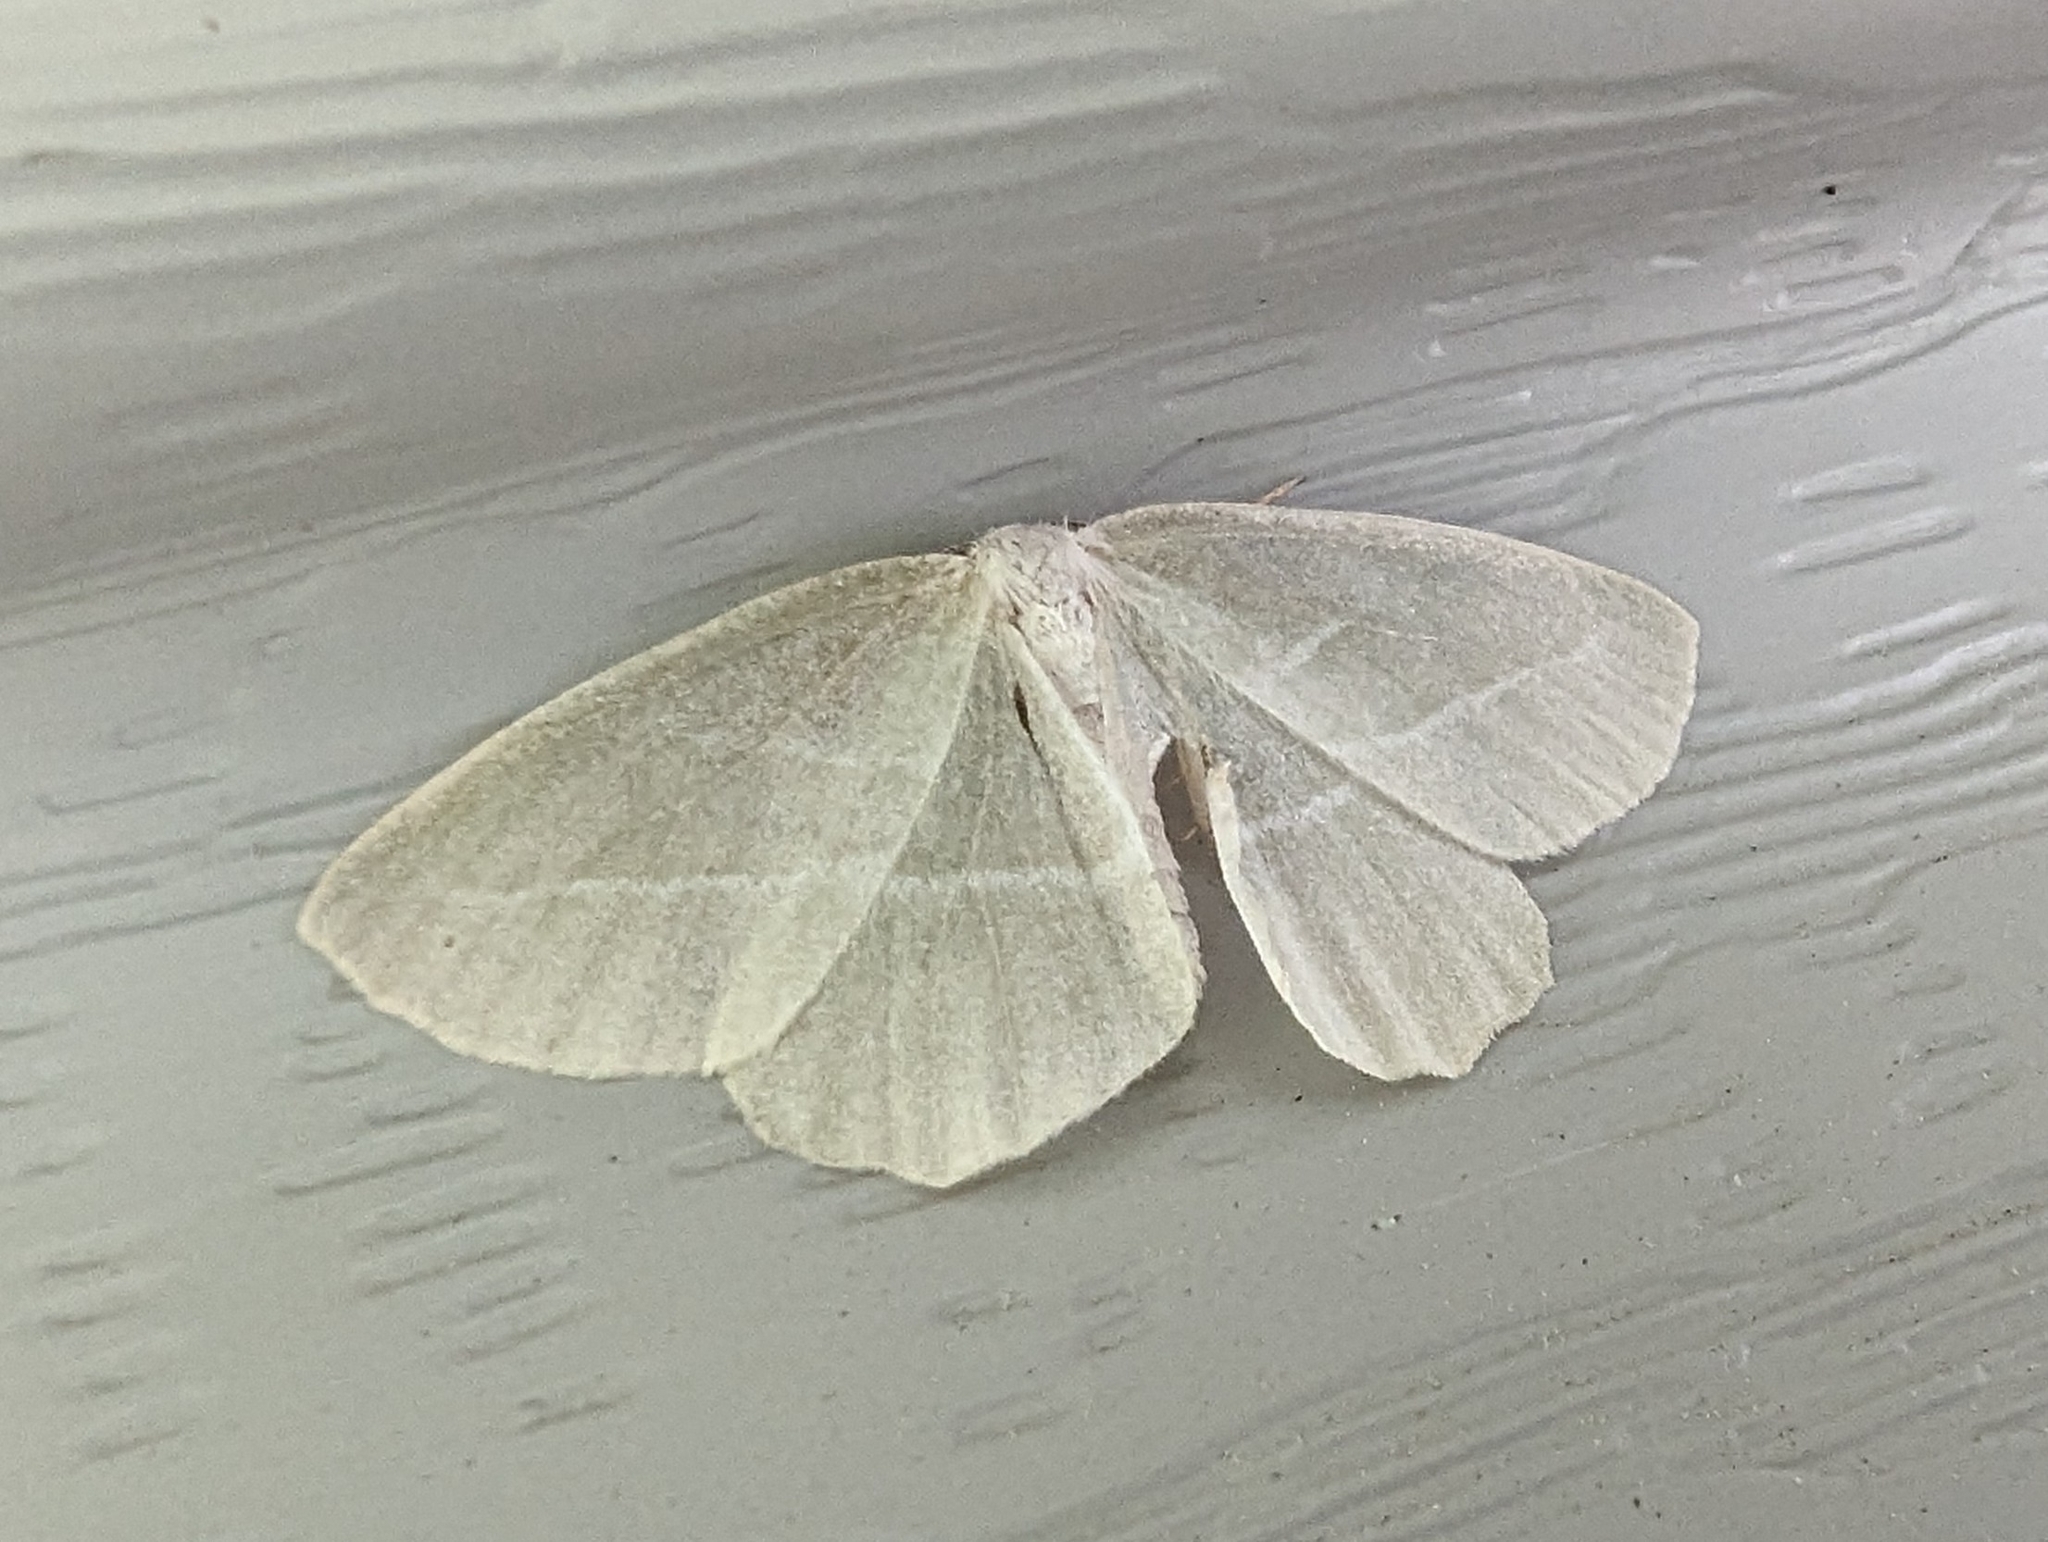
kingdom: Animalia
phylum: Arthropoda
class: Insecta
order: Lepidoptera
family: Geometridae
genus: Campaea
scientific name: Campaea perlata
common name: Fringed looper
